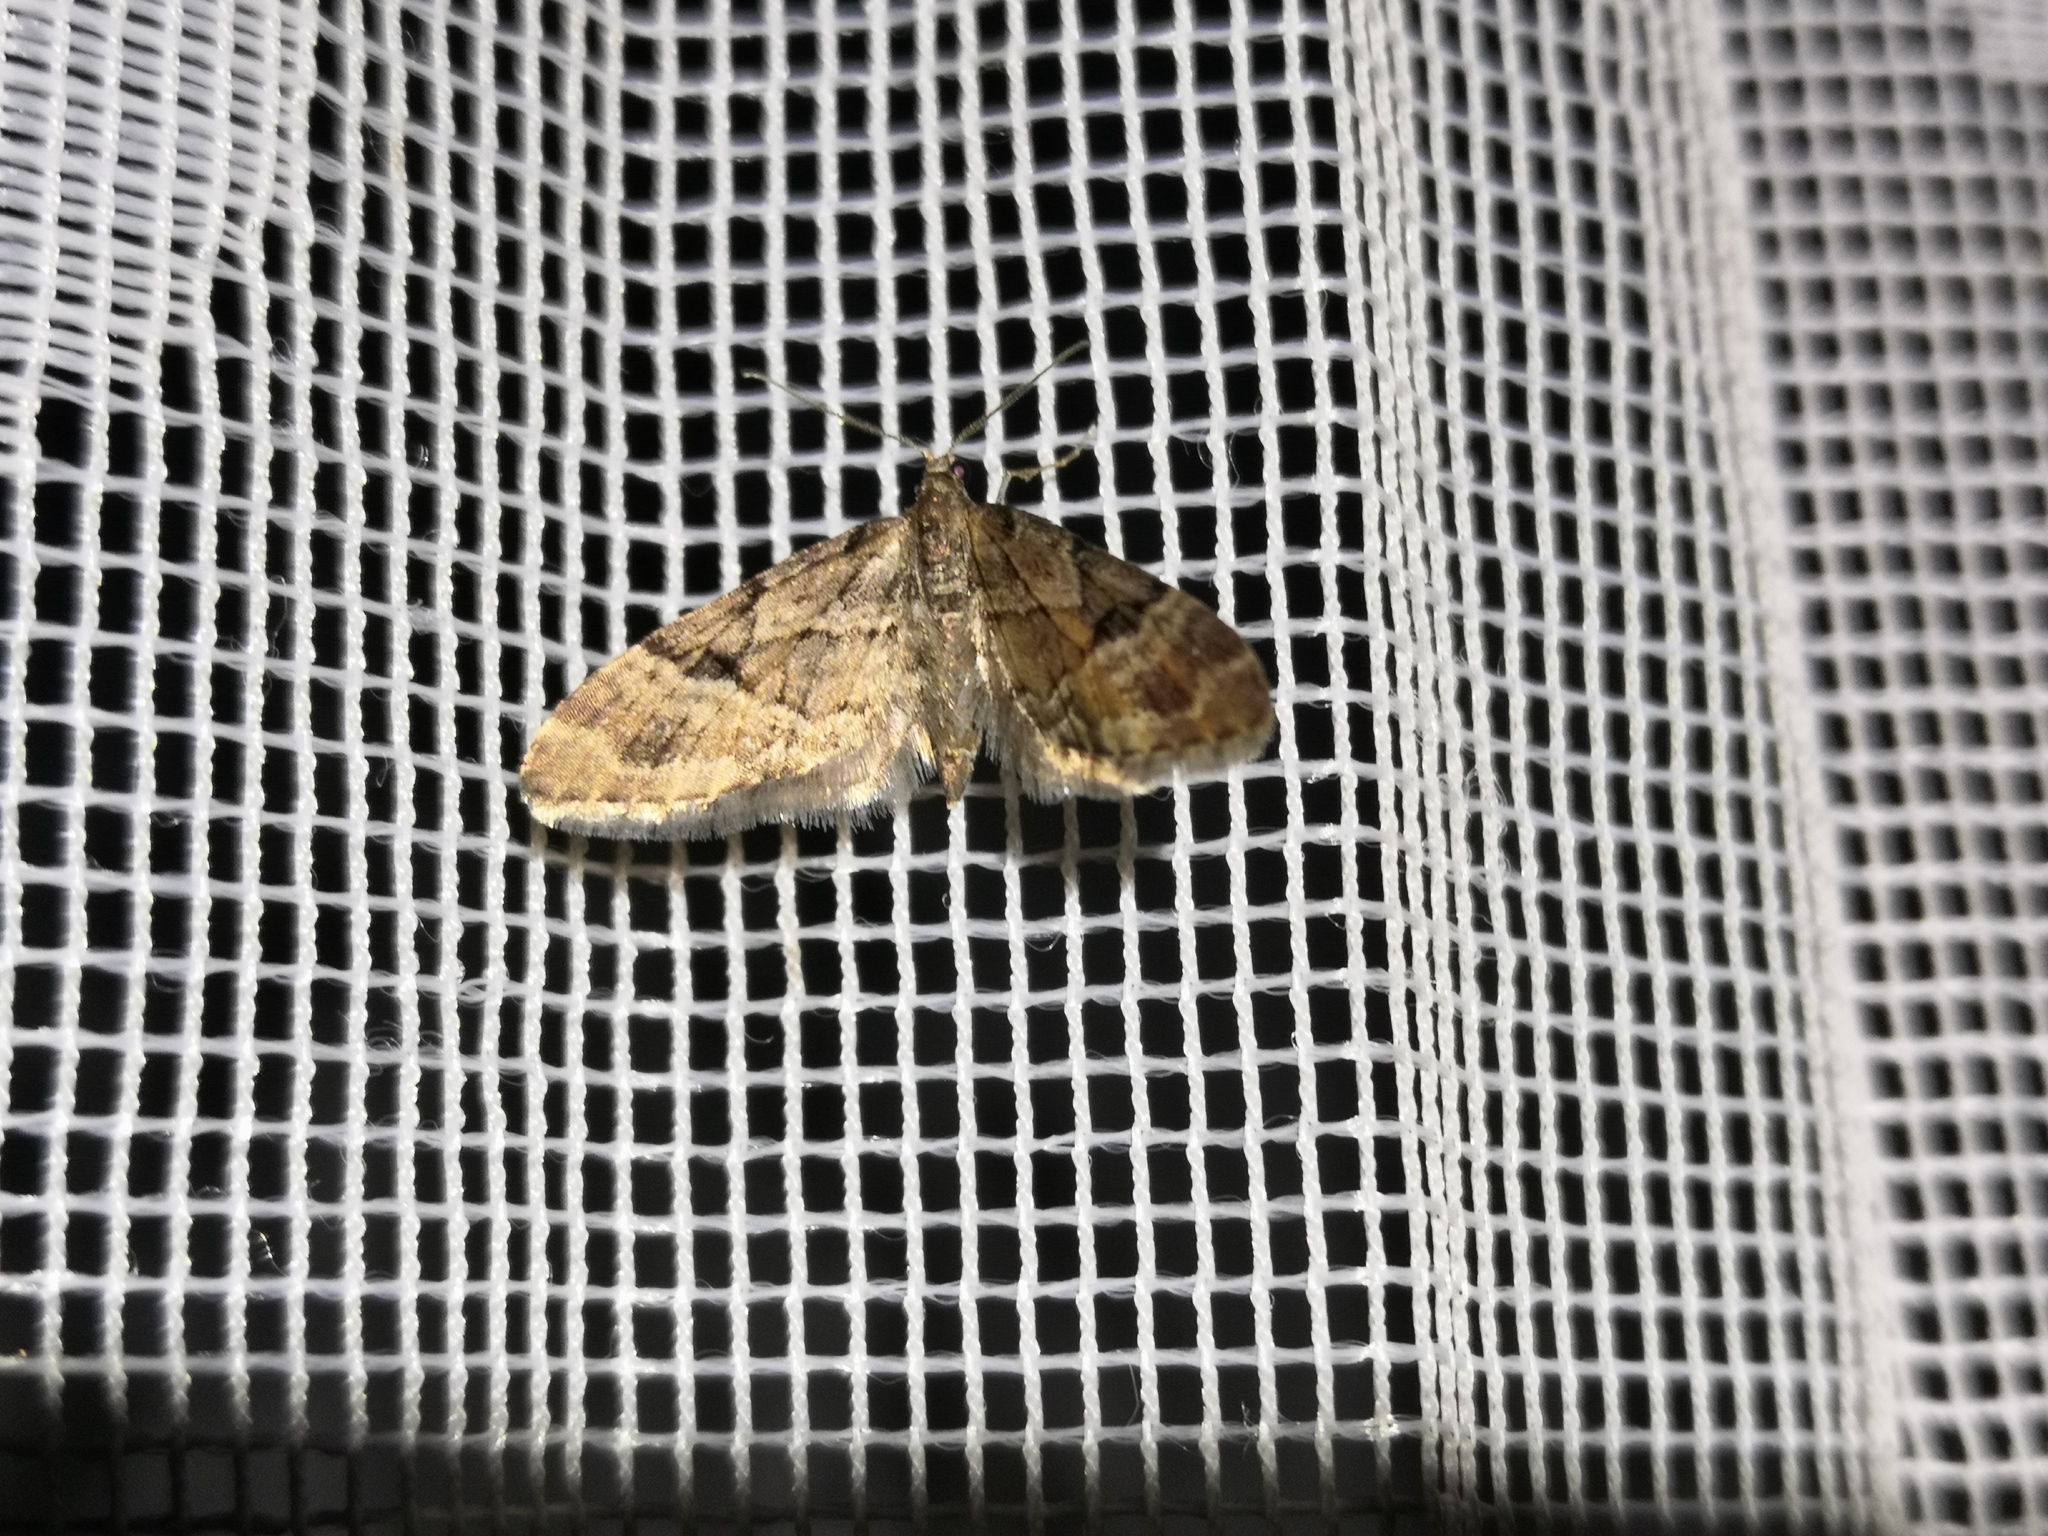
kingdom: Animalia
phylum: Arthropoda
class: Insecta
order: Lepidoptera
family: Geometridae
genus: Eupithecia
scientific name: Eupithecia lanceata
